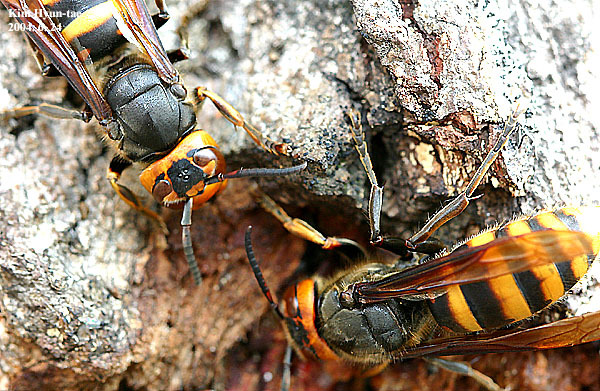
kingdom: Animalia
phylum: Arthropoda
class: Insecta
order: Hymenoptera
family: Vespidae
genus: Vespa
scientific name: Vespa mandarinia
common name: Asian giant hornet
